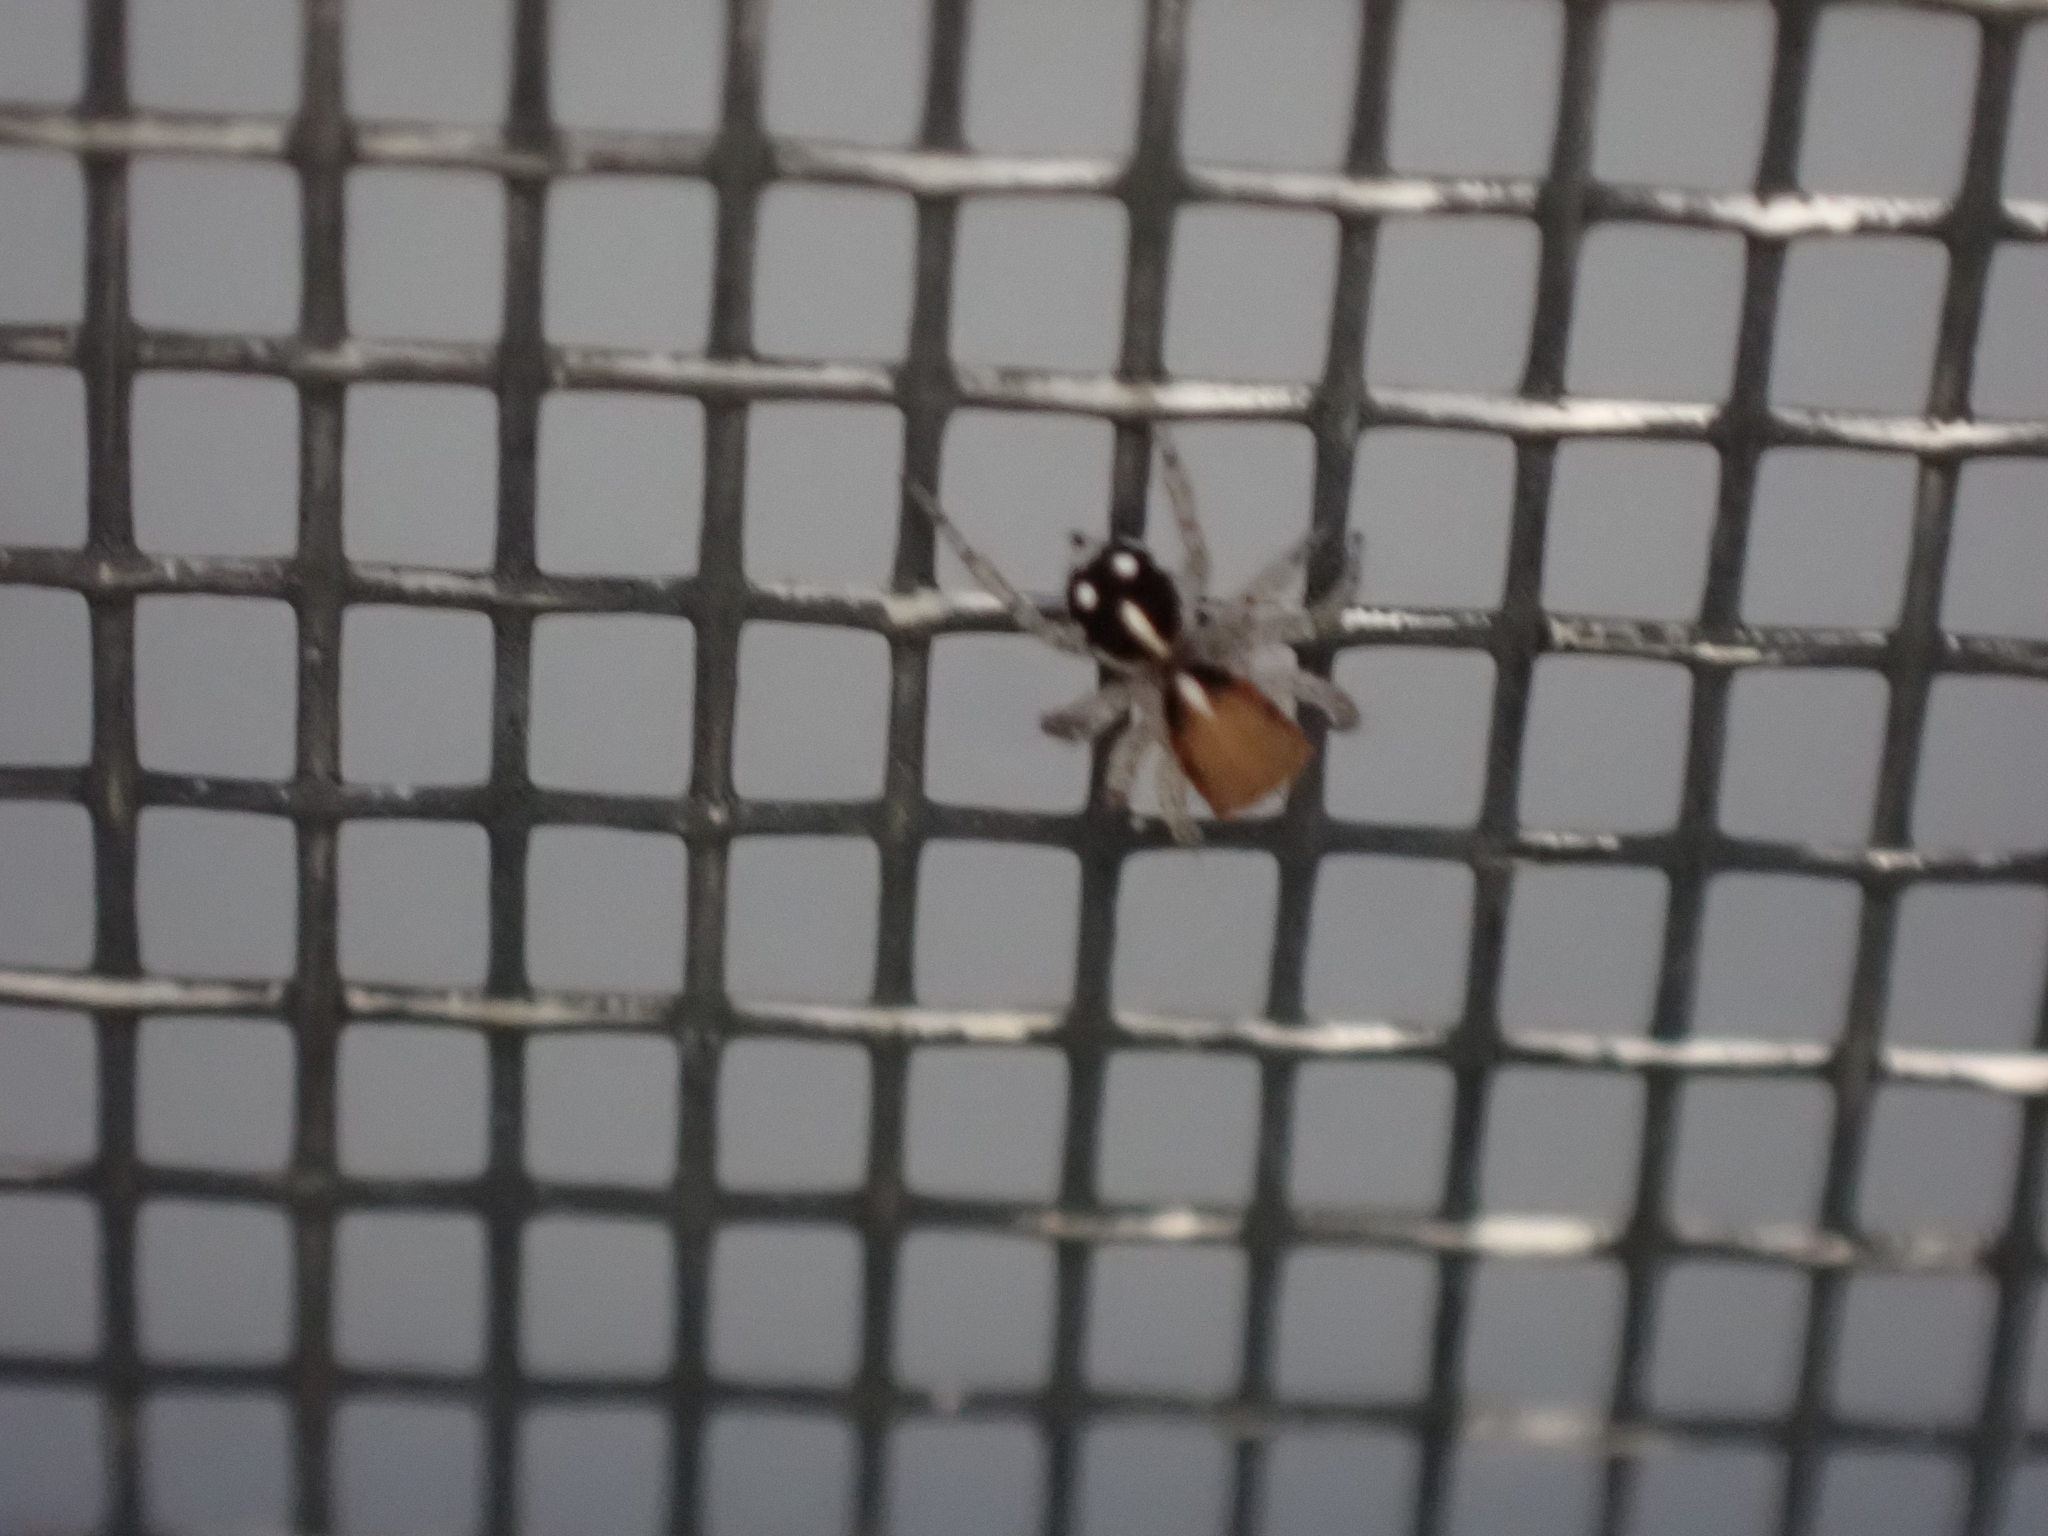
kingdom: Animalia
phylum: Arthropoda
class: Arachnida
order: Araneae
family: Salticidae
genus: Naphrys
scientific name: Naphrys xerophila
